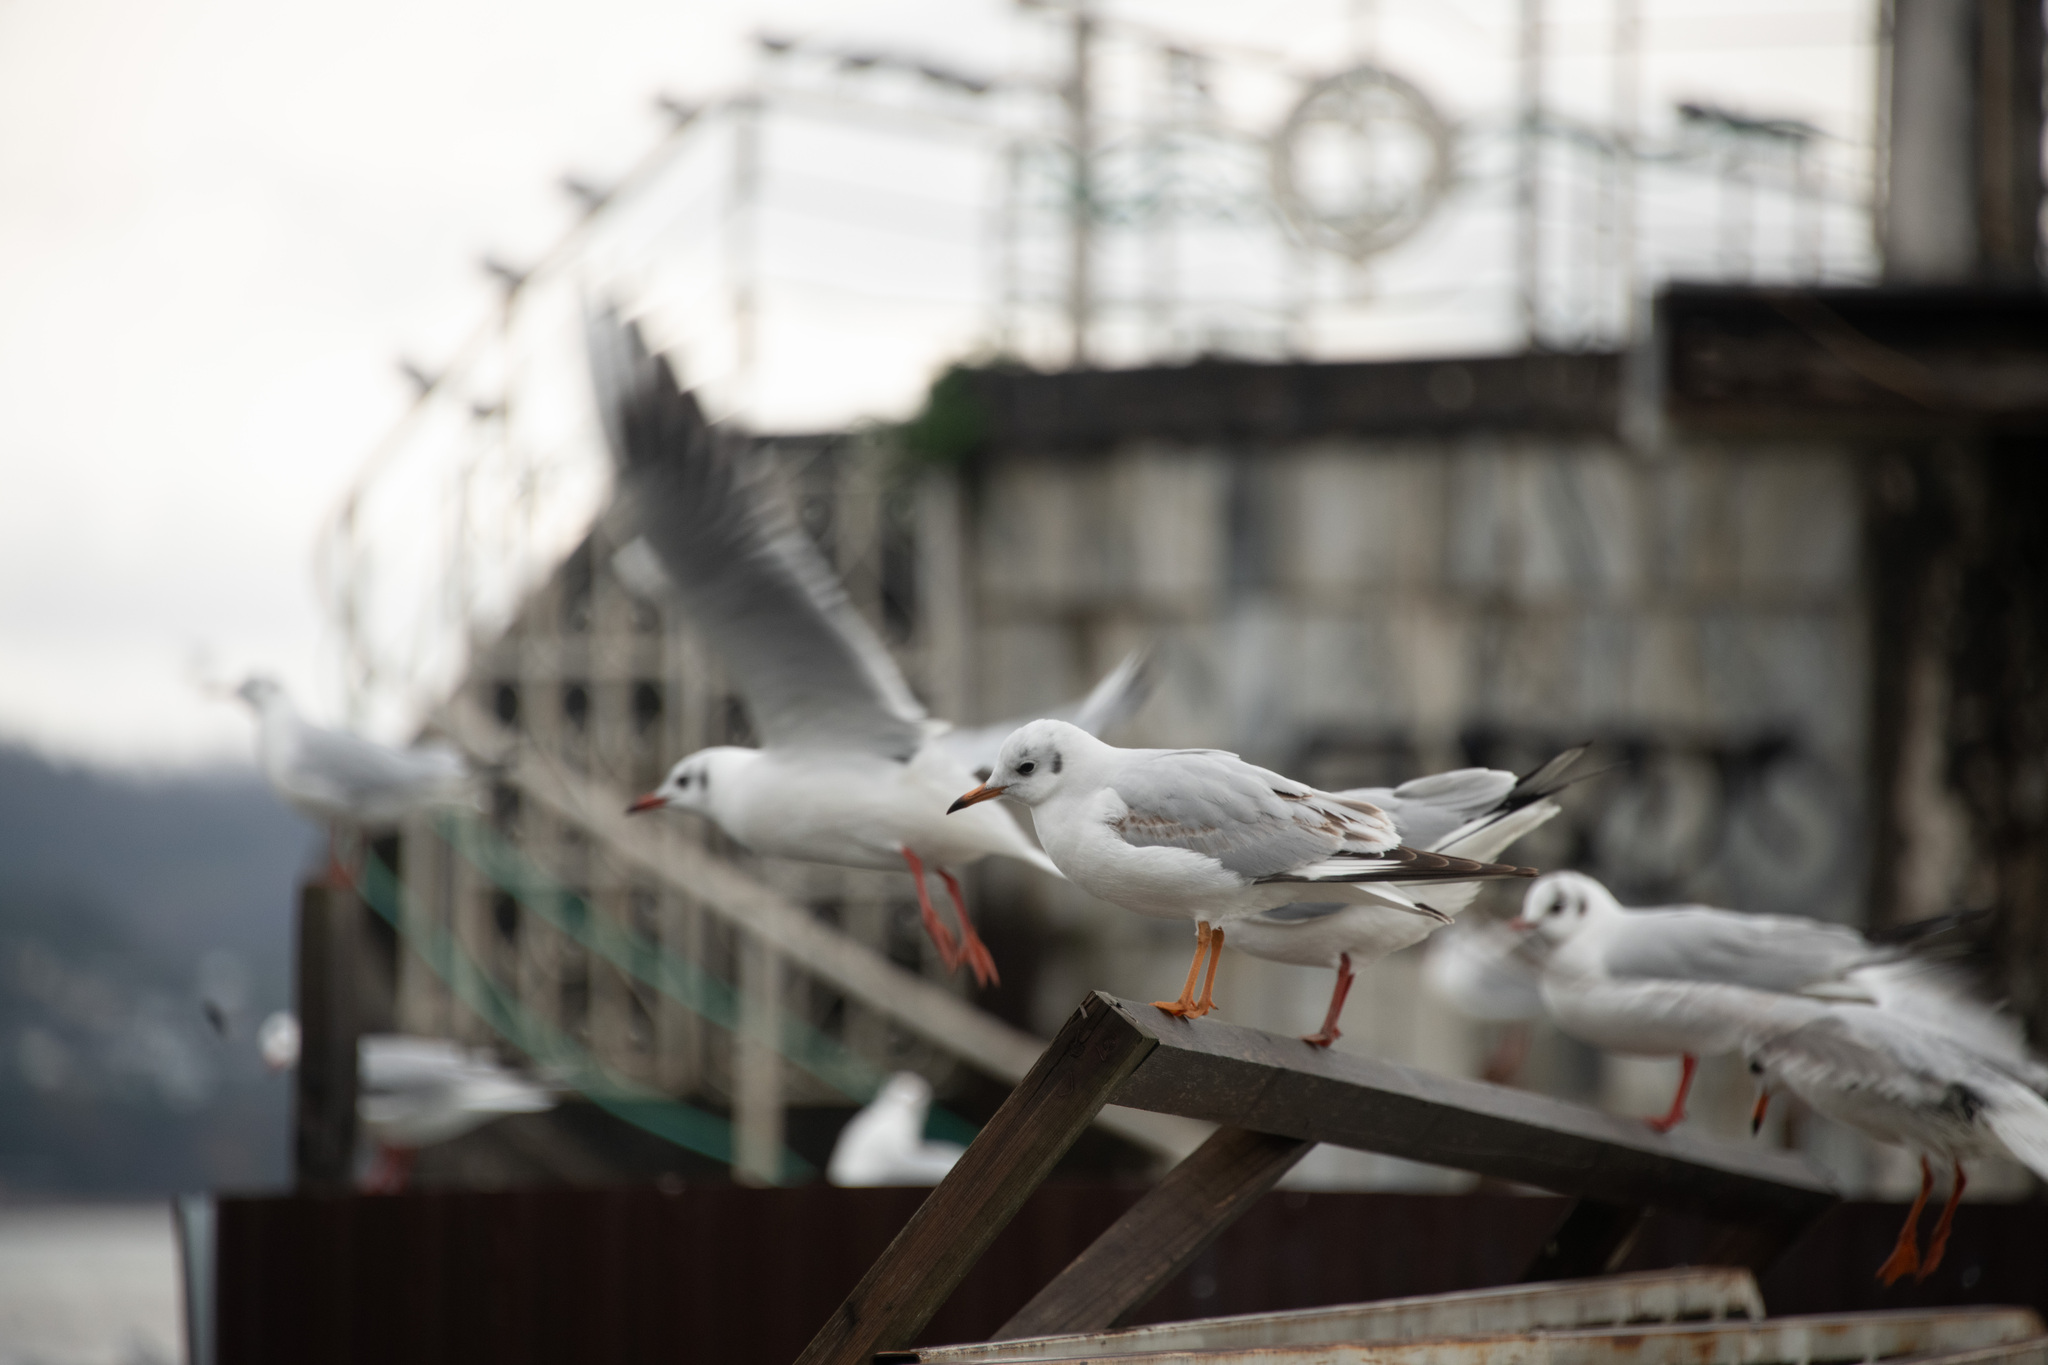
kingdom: Animalia
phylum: Chordata
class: Aves
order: Charadriiformes
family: Laridae
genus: Chroicocephalus
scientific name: Chroicocephalus ridibundus
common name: Black-headed gull
